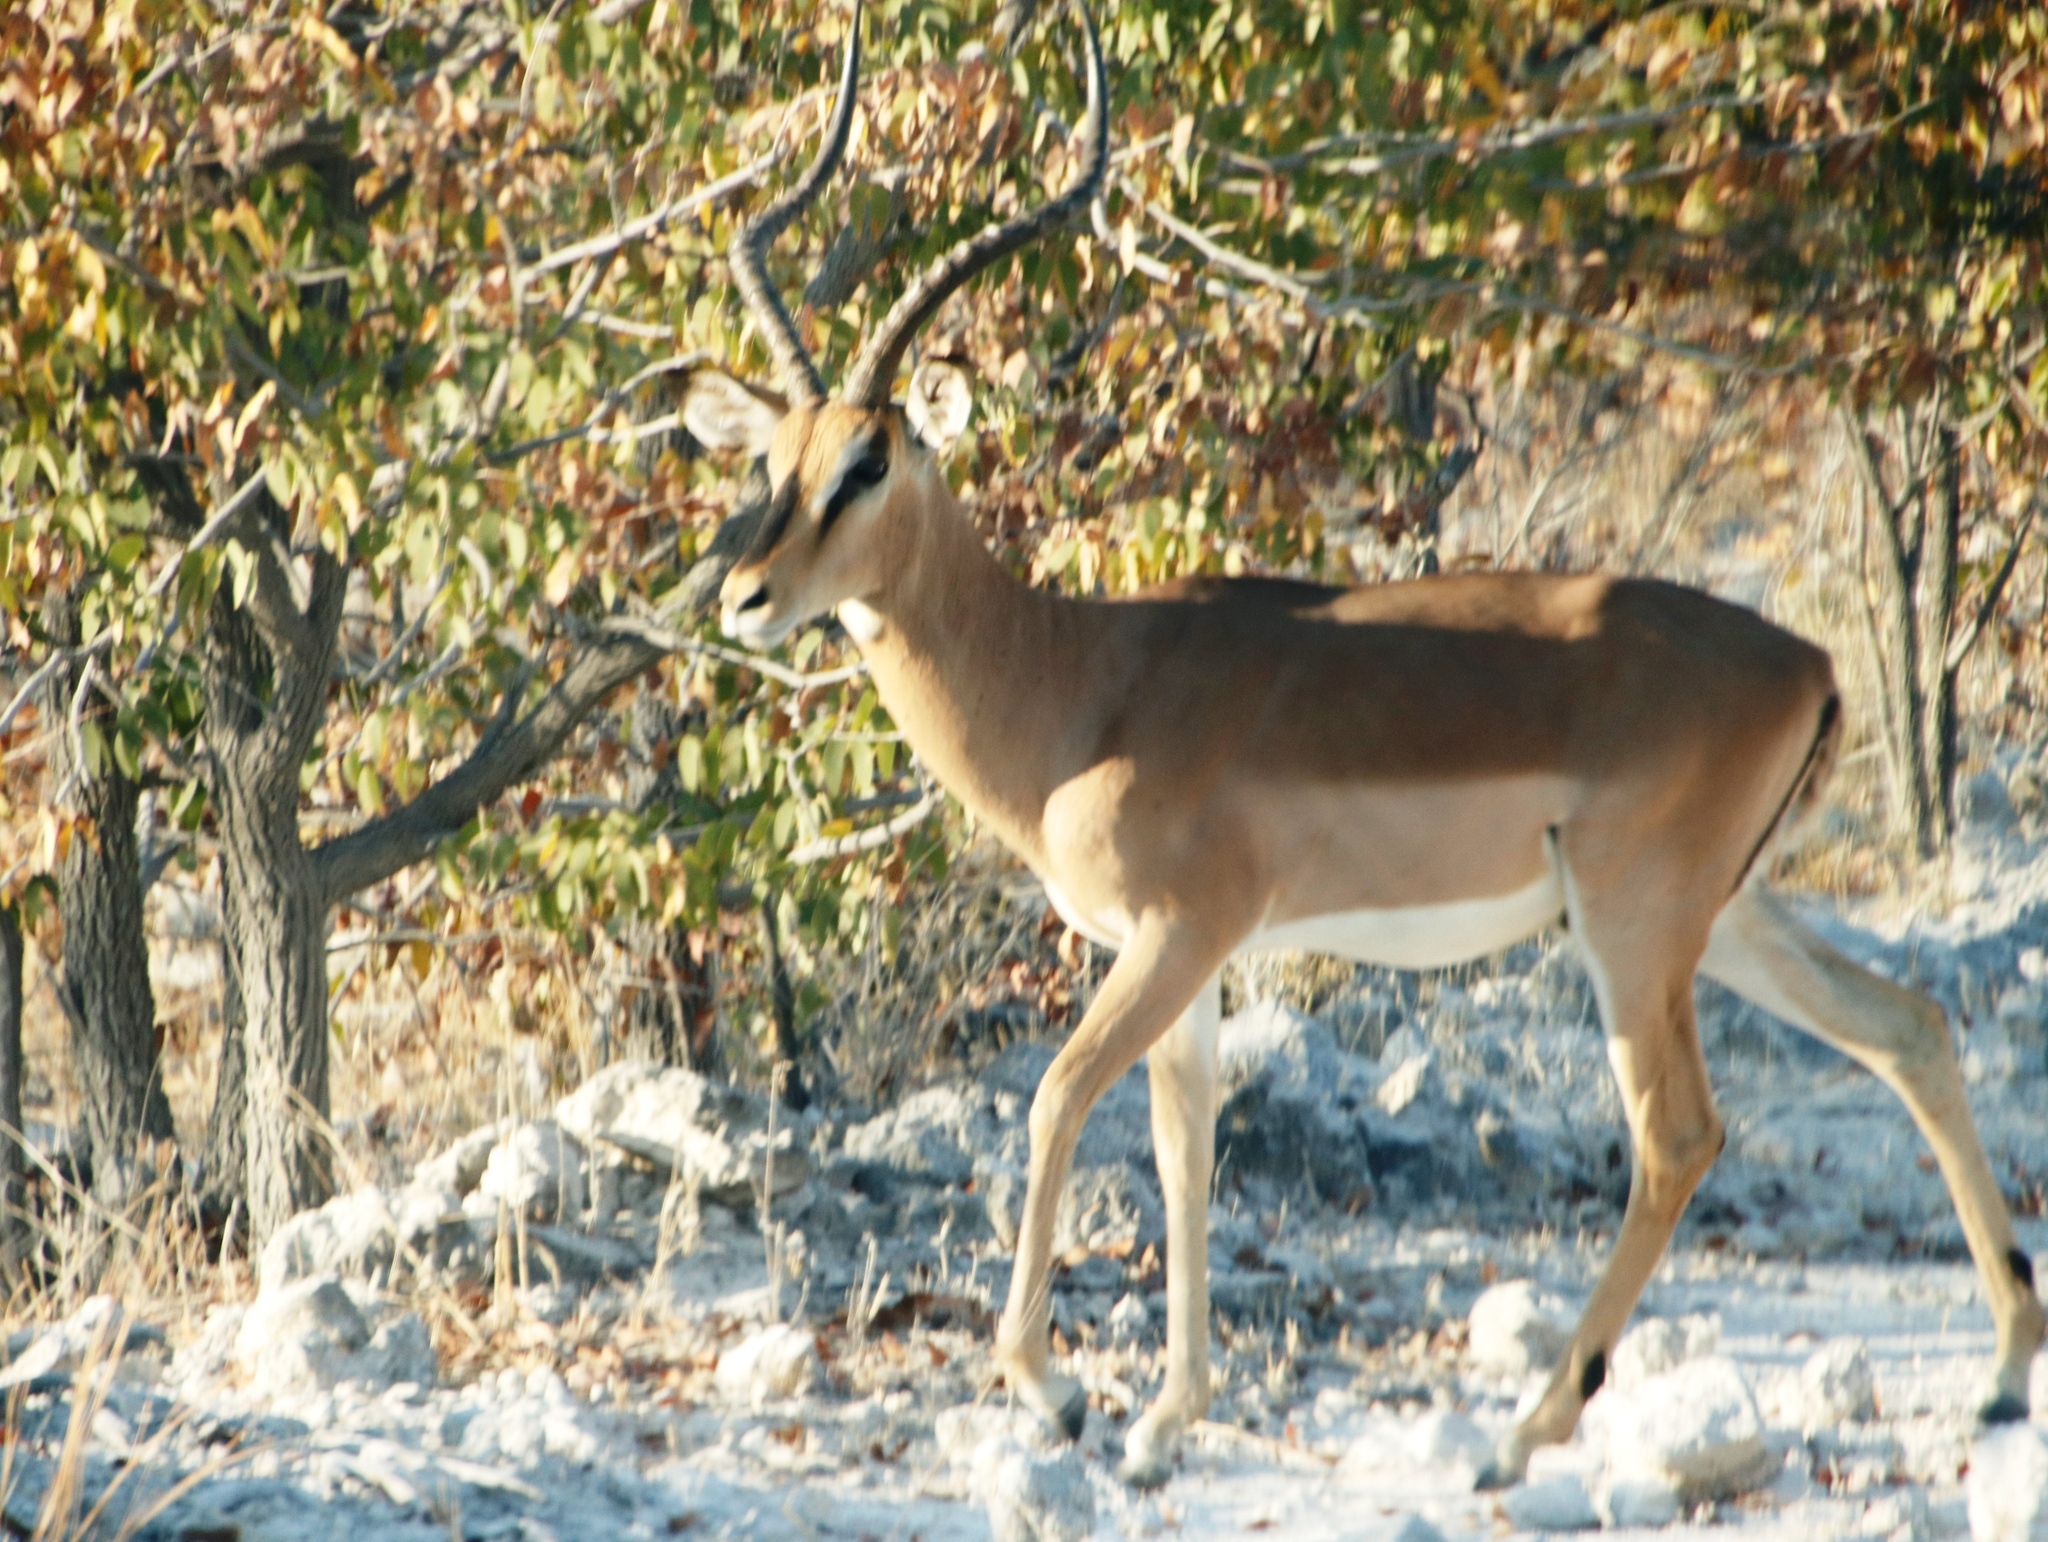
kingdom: Animalia
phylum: Chordata
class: Mammalia
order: Artiodactyla
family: Bovidae
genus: Aepyceros
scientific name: Aepyceros melampus
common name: Impala
